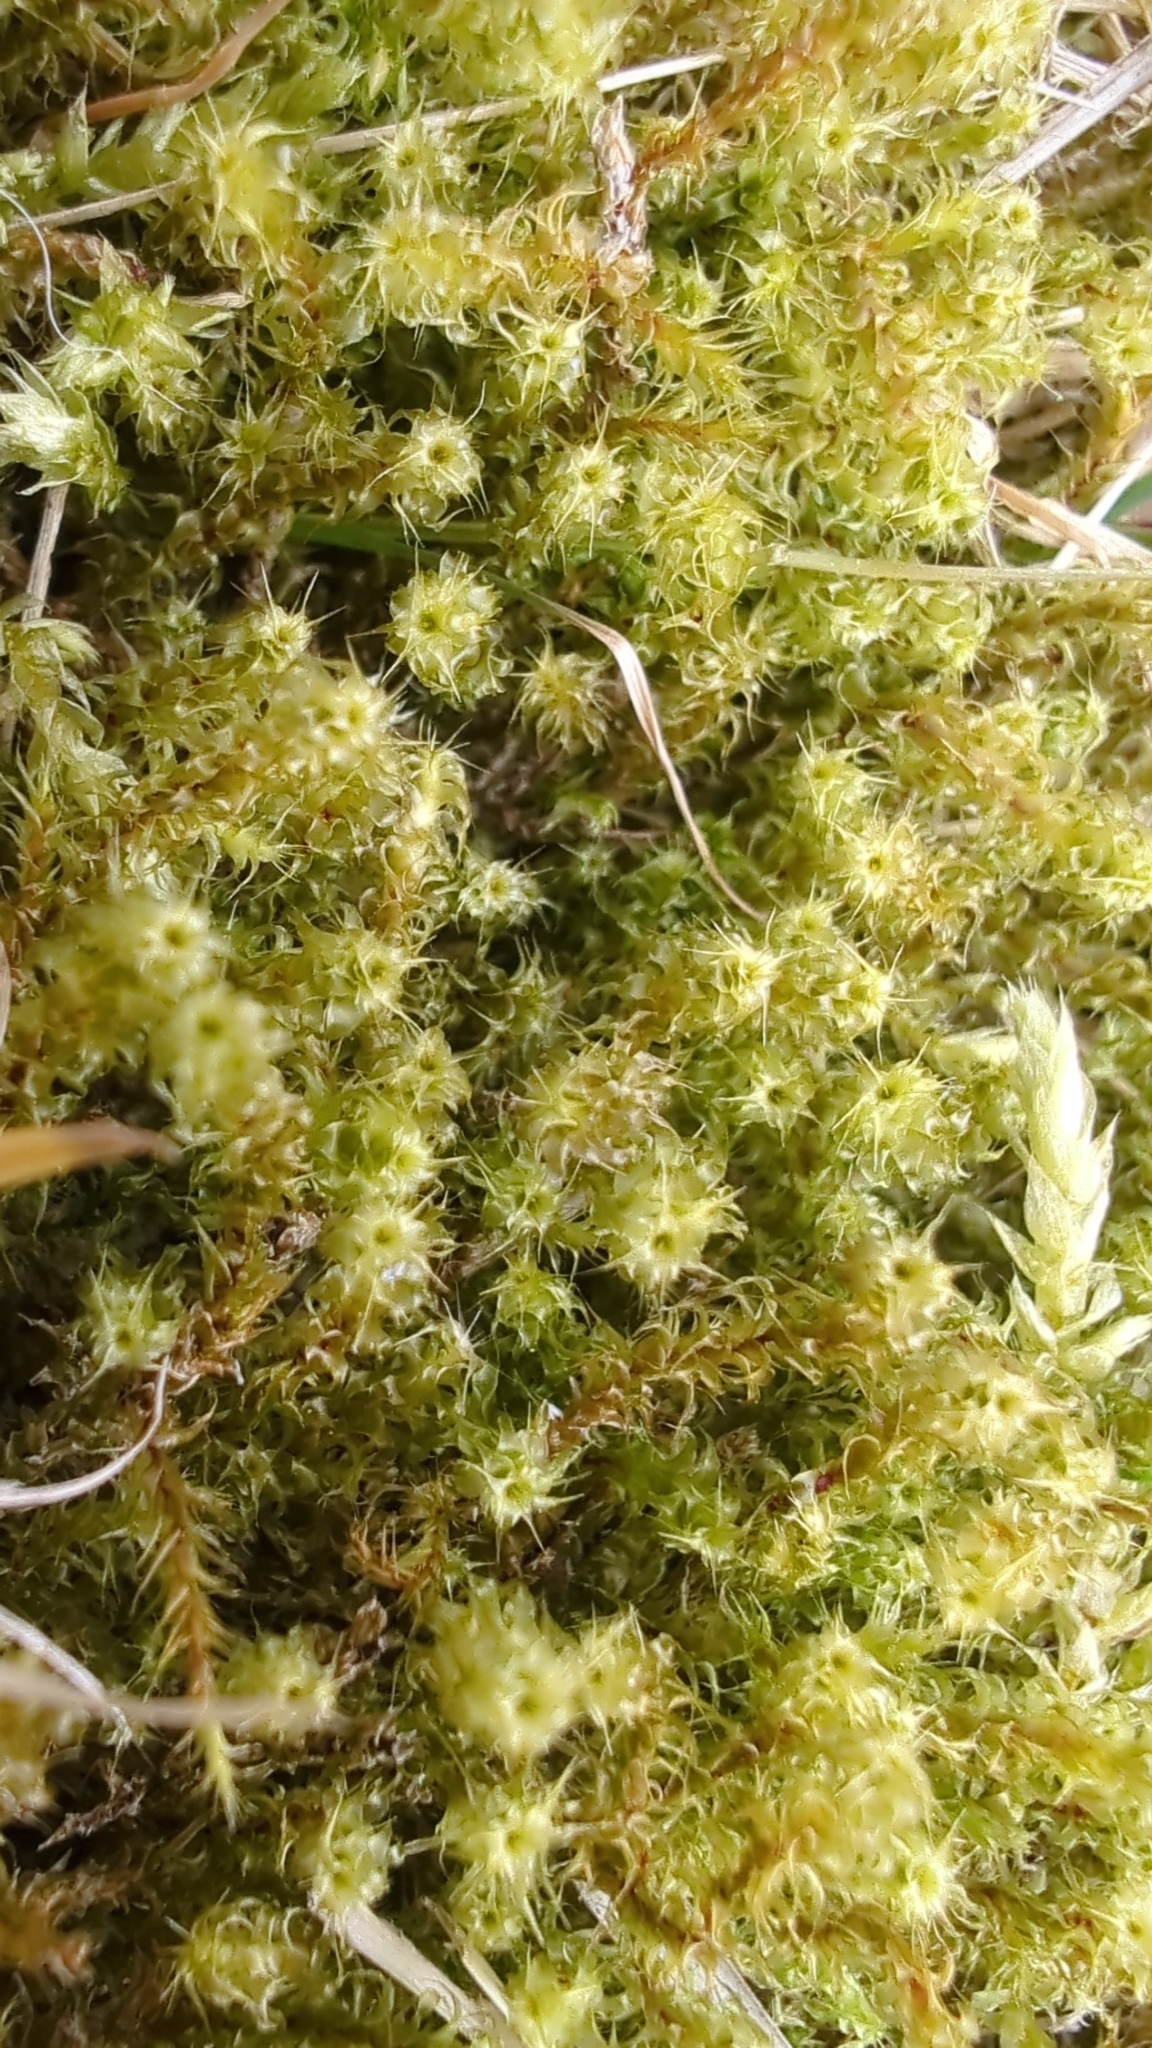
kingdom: Plantae
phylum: Bryophyta
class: Bryopsida
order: Hypnales
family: Hylocomiaceae
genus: Rhytidiadelphus
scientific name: Rhytidiadelphus squarrosus
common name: Springy turf-moss
